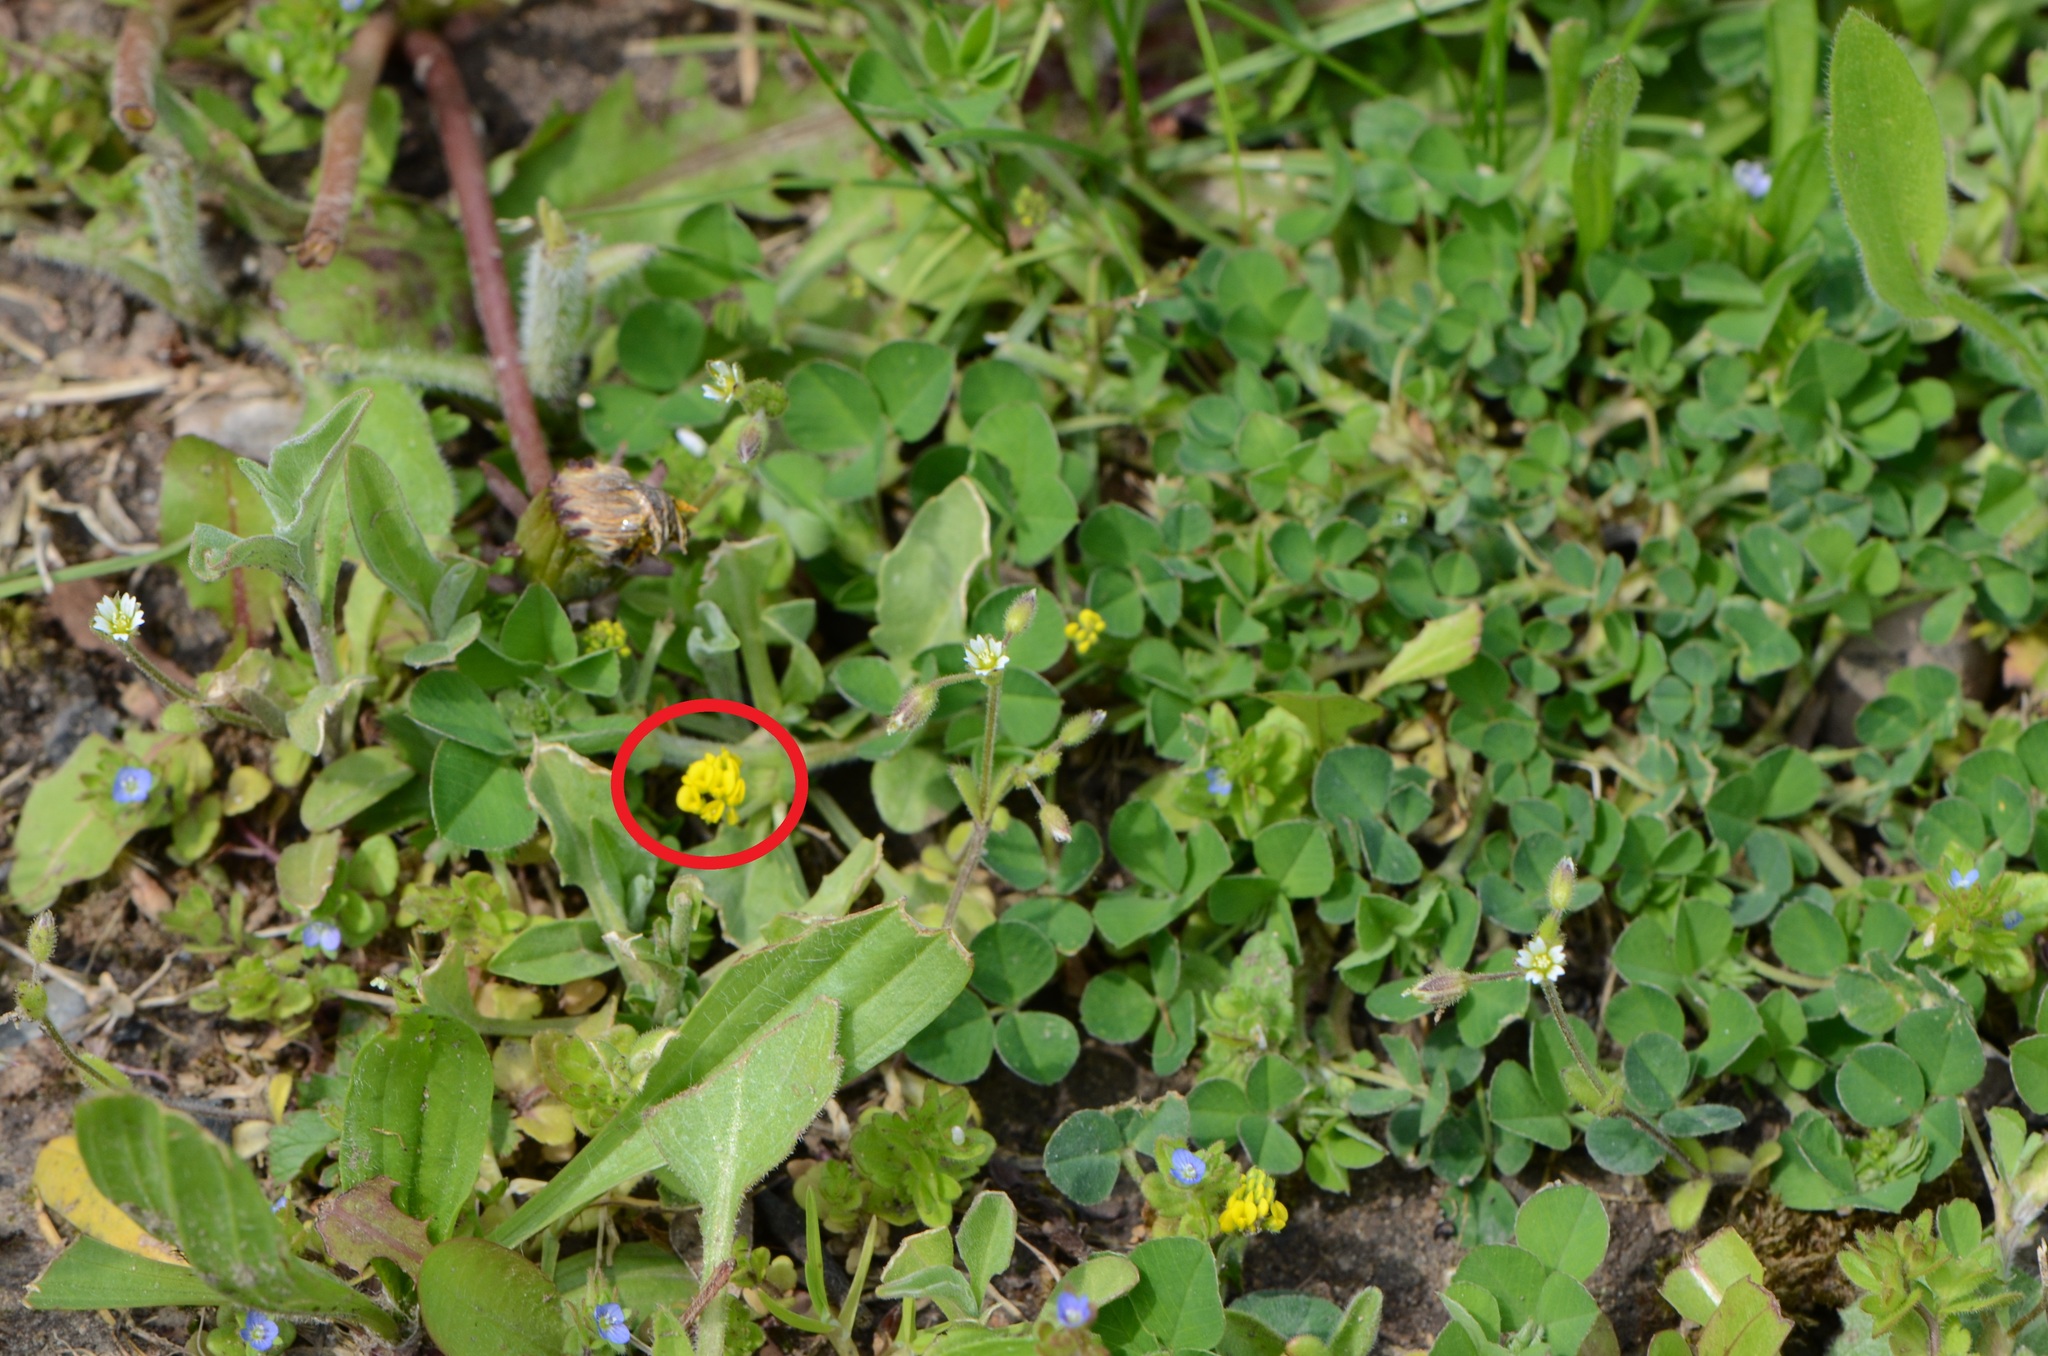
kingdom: Plantae
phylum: Tracheophyta
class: Magnoliopsida
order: Fabales
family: Fabaceae
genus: Medicago
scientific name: Medicago lupulina
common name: Black medick
